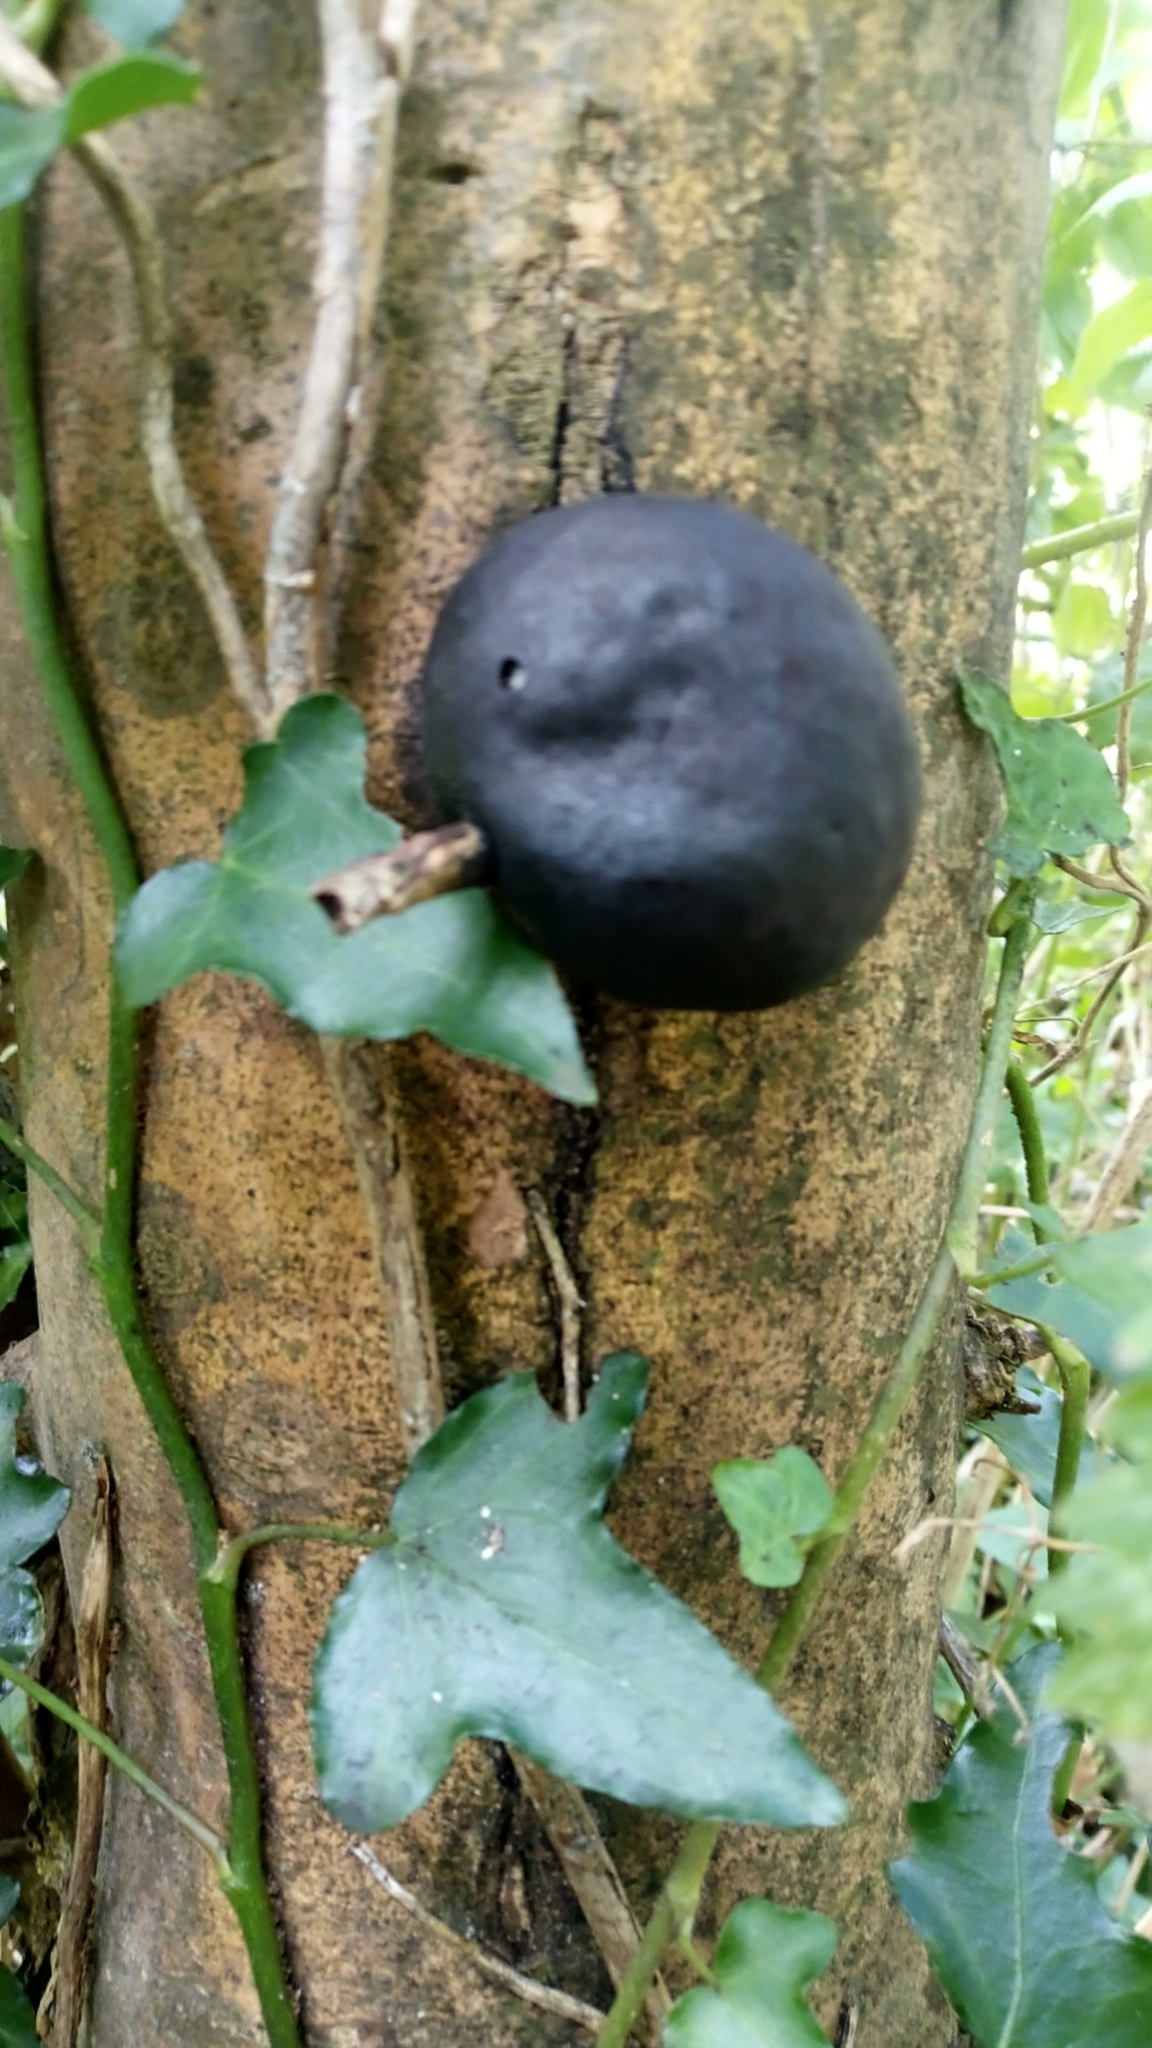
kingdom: Fungi
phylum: Ascomycota
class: Sordariomycetes
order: Xylariales
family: Hypoxylaceae
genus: Daldinia
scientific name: Daldinia concentrica
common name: Cramp balls
